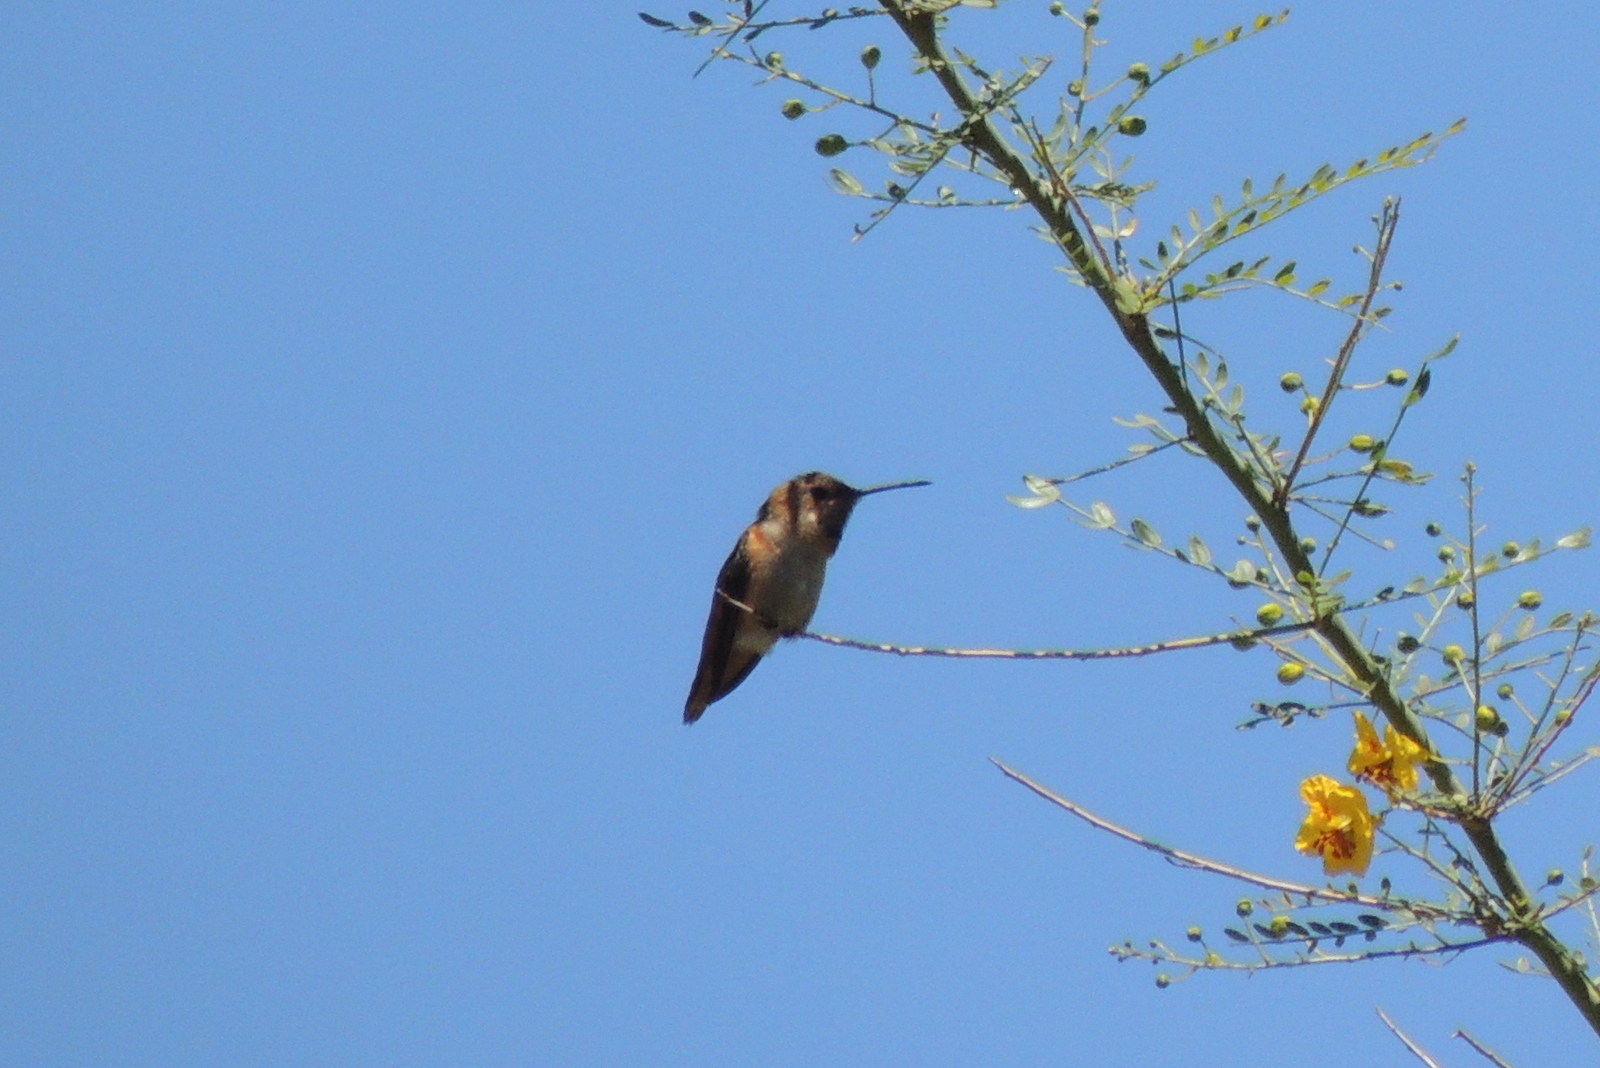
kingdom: Animalia
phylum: Chordata
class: Aves
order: Apodiformes
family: Trochilidae
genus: Selasphorus
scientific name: Selasphorus
